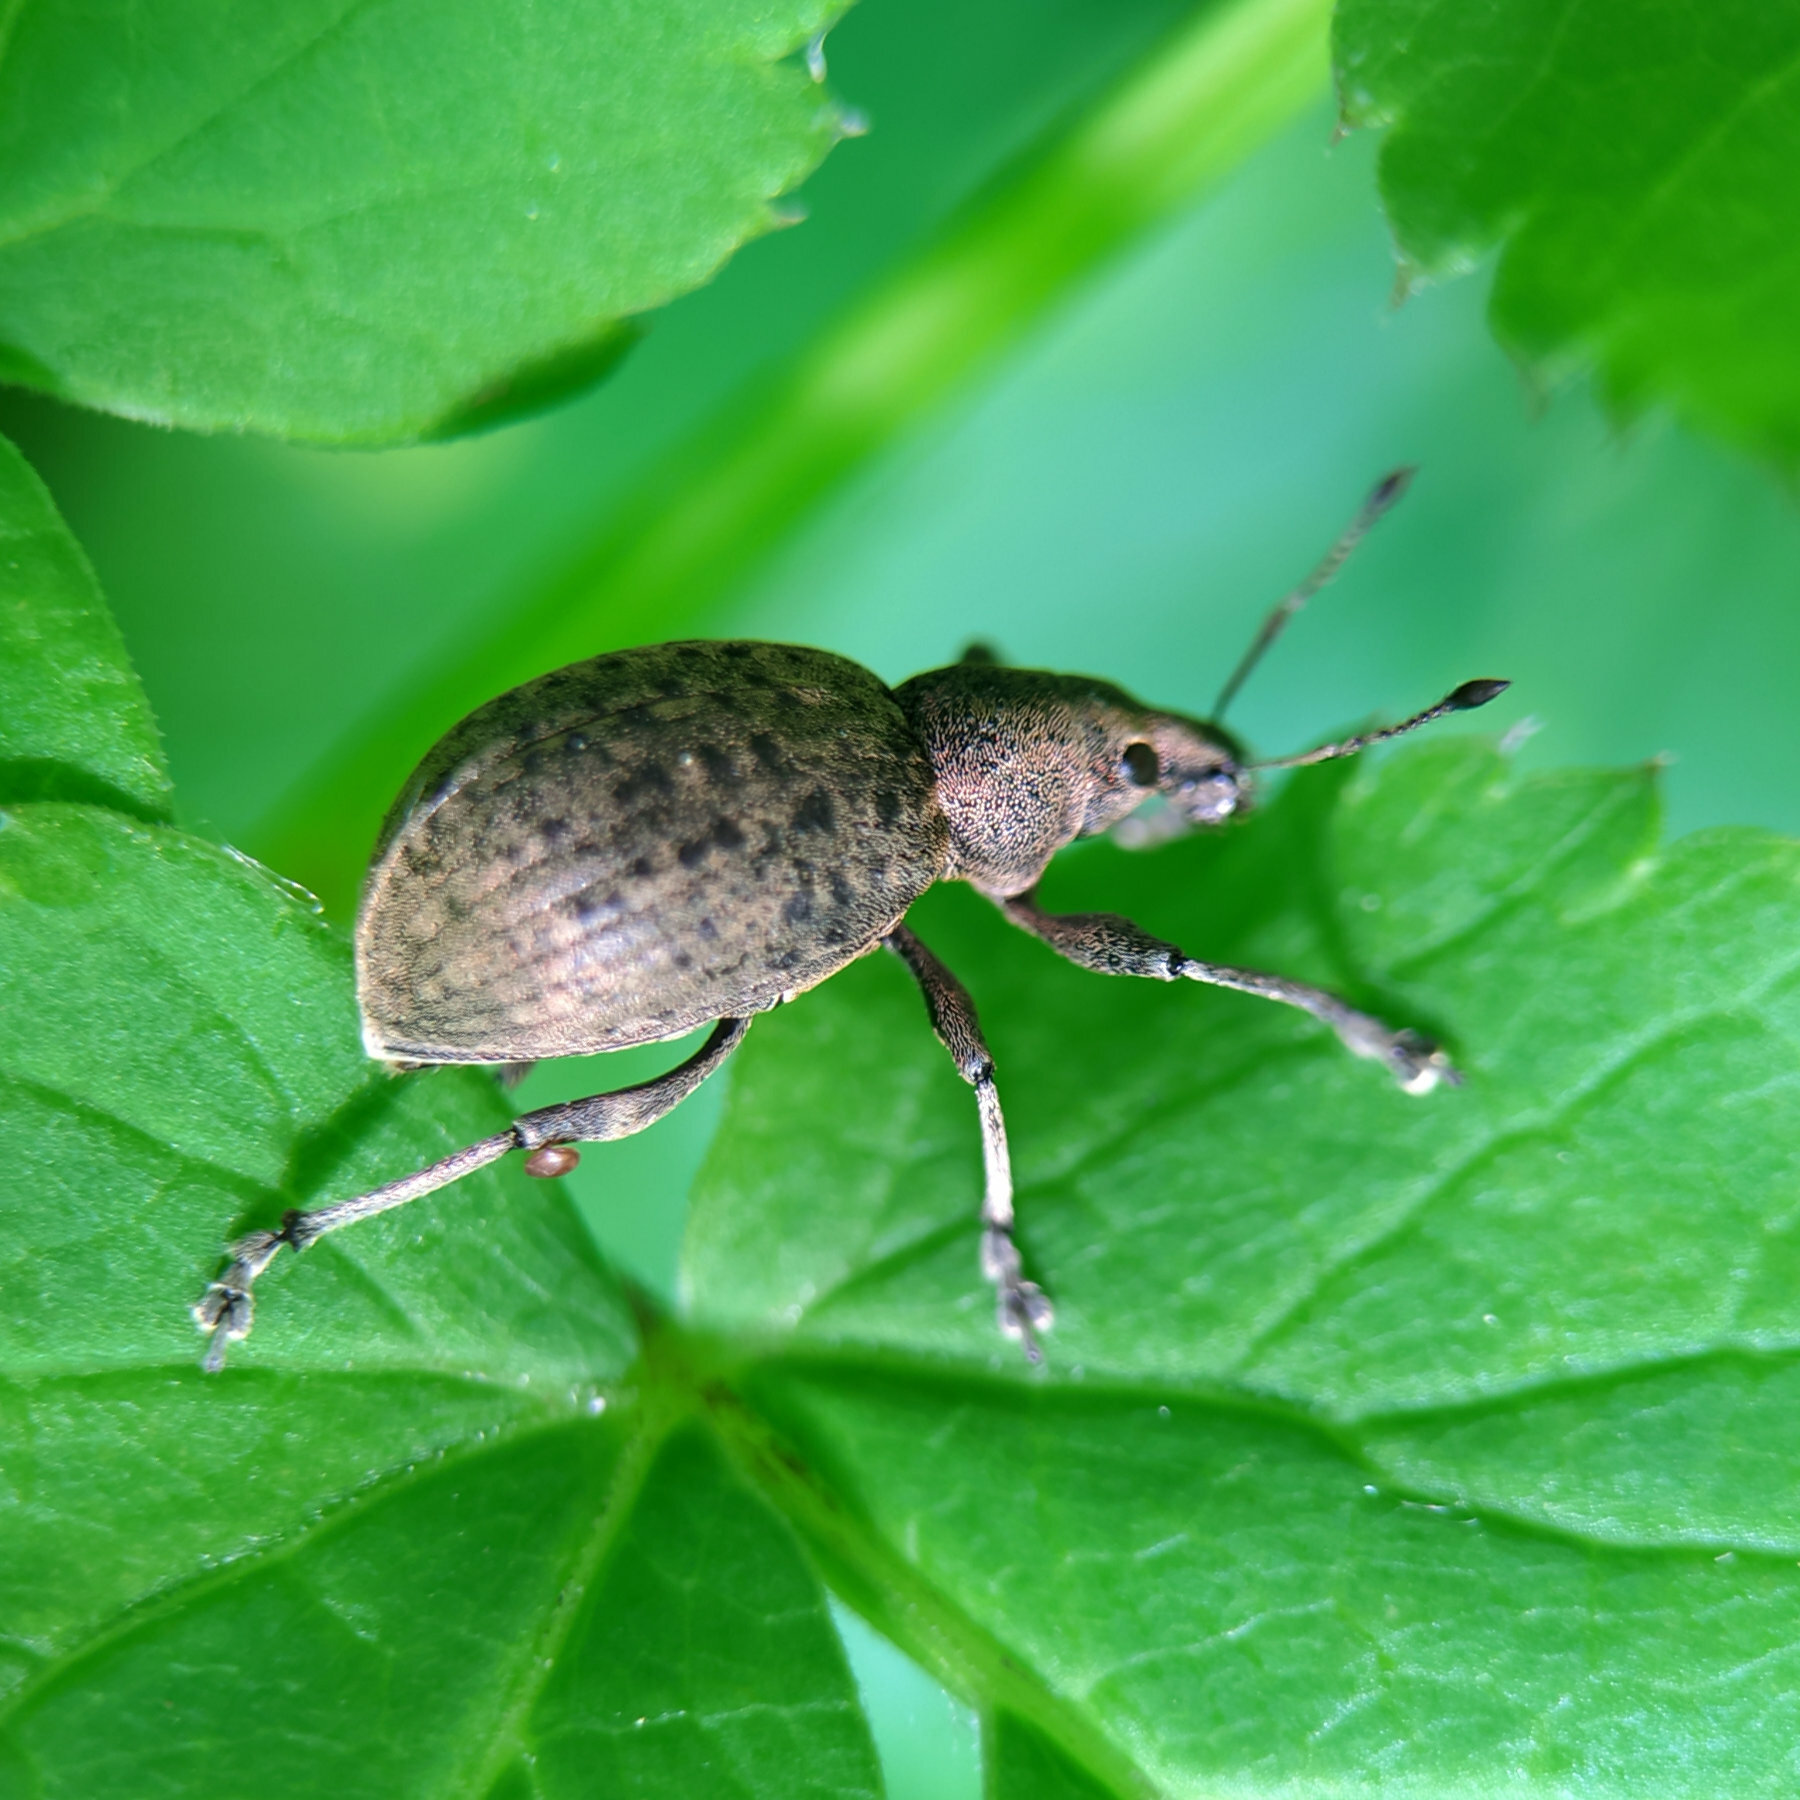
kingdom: Animalia
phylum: Arthropoda
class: Insecta
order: Coleoptera
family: Curculionidae
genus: Liophloeus
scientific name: Liophloeus tessulatus
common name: Weevil
